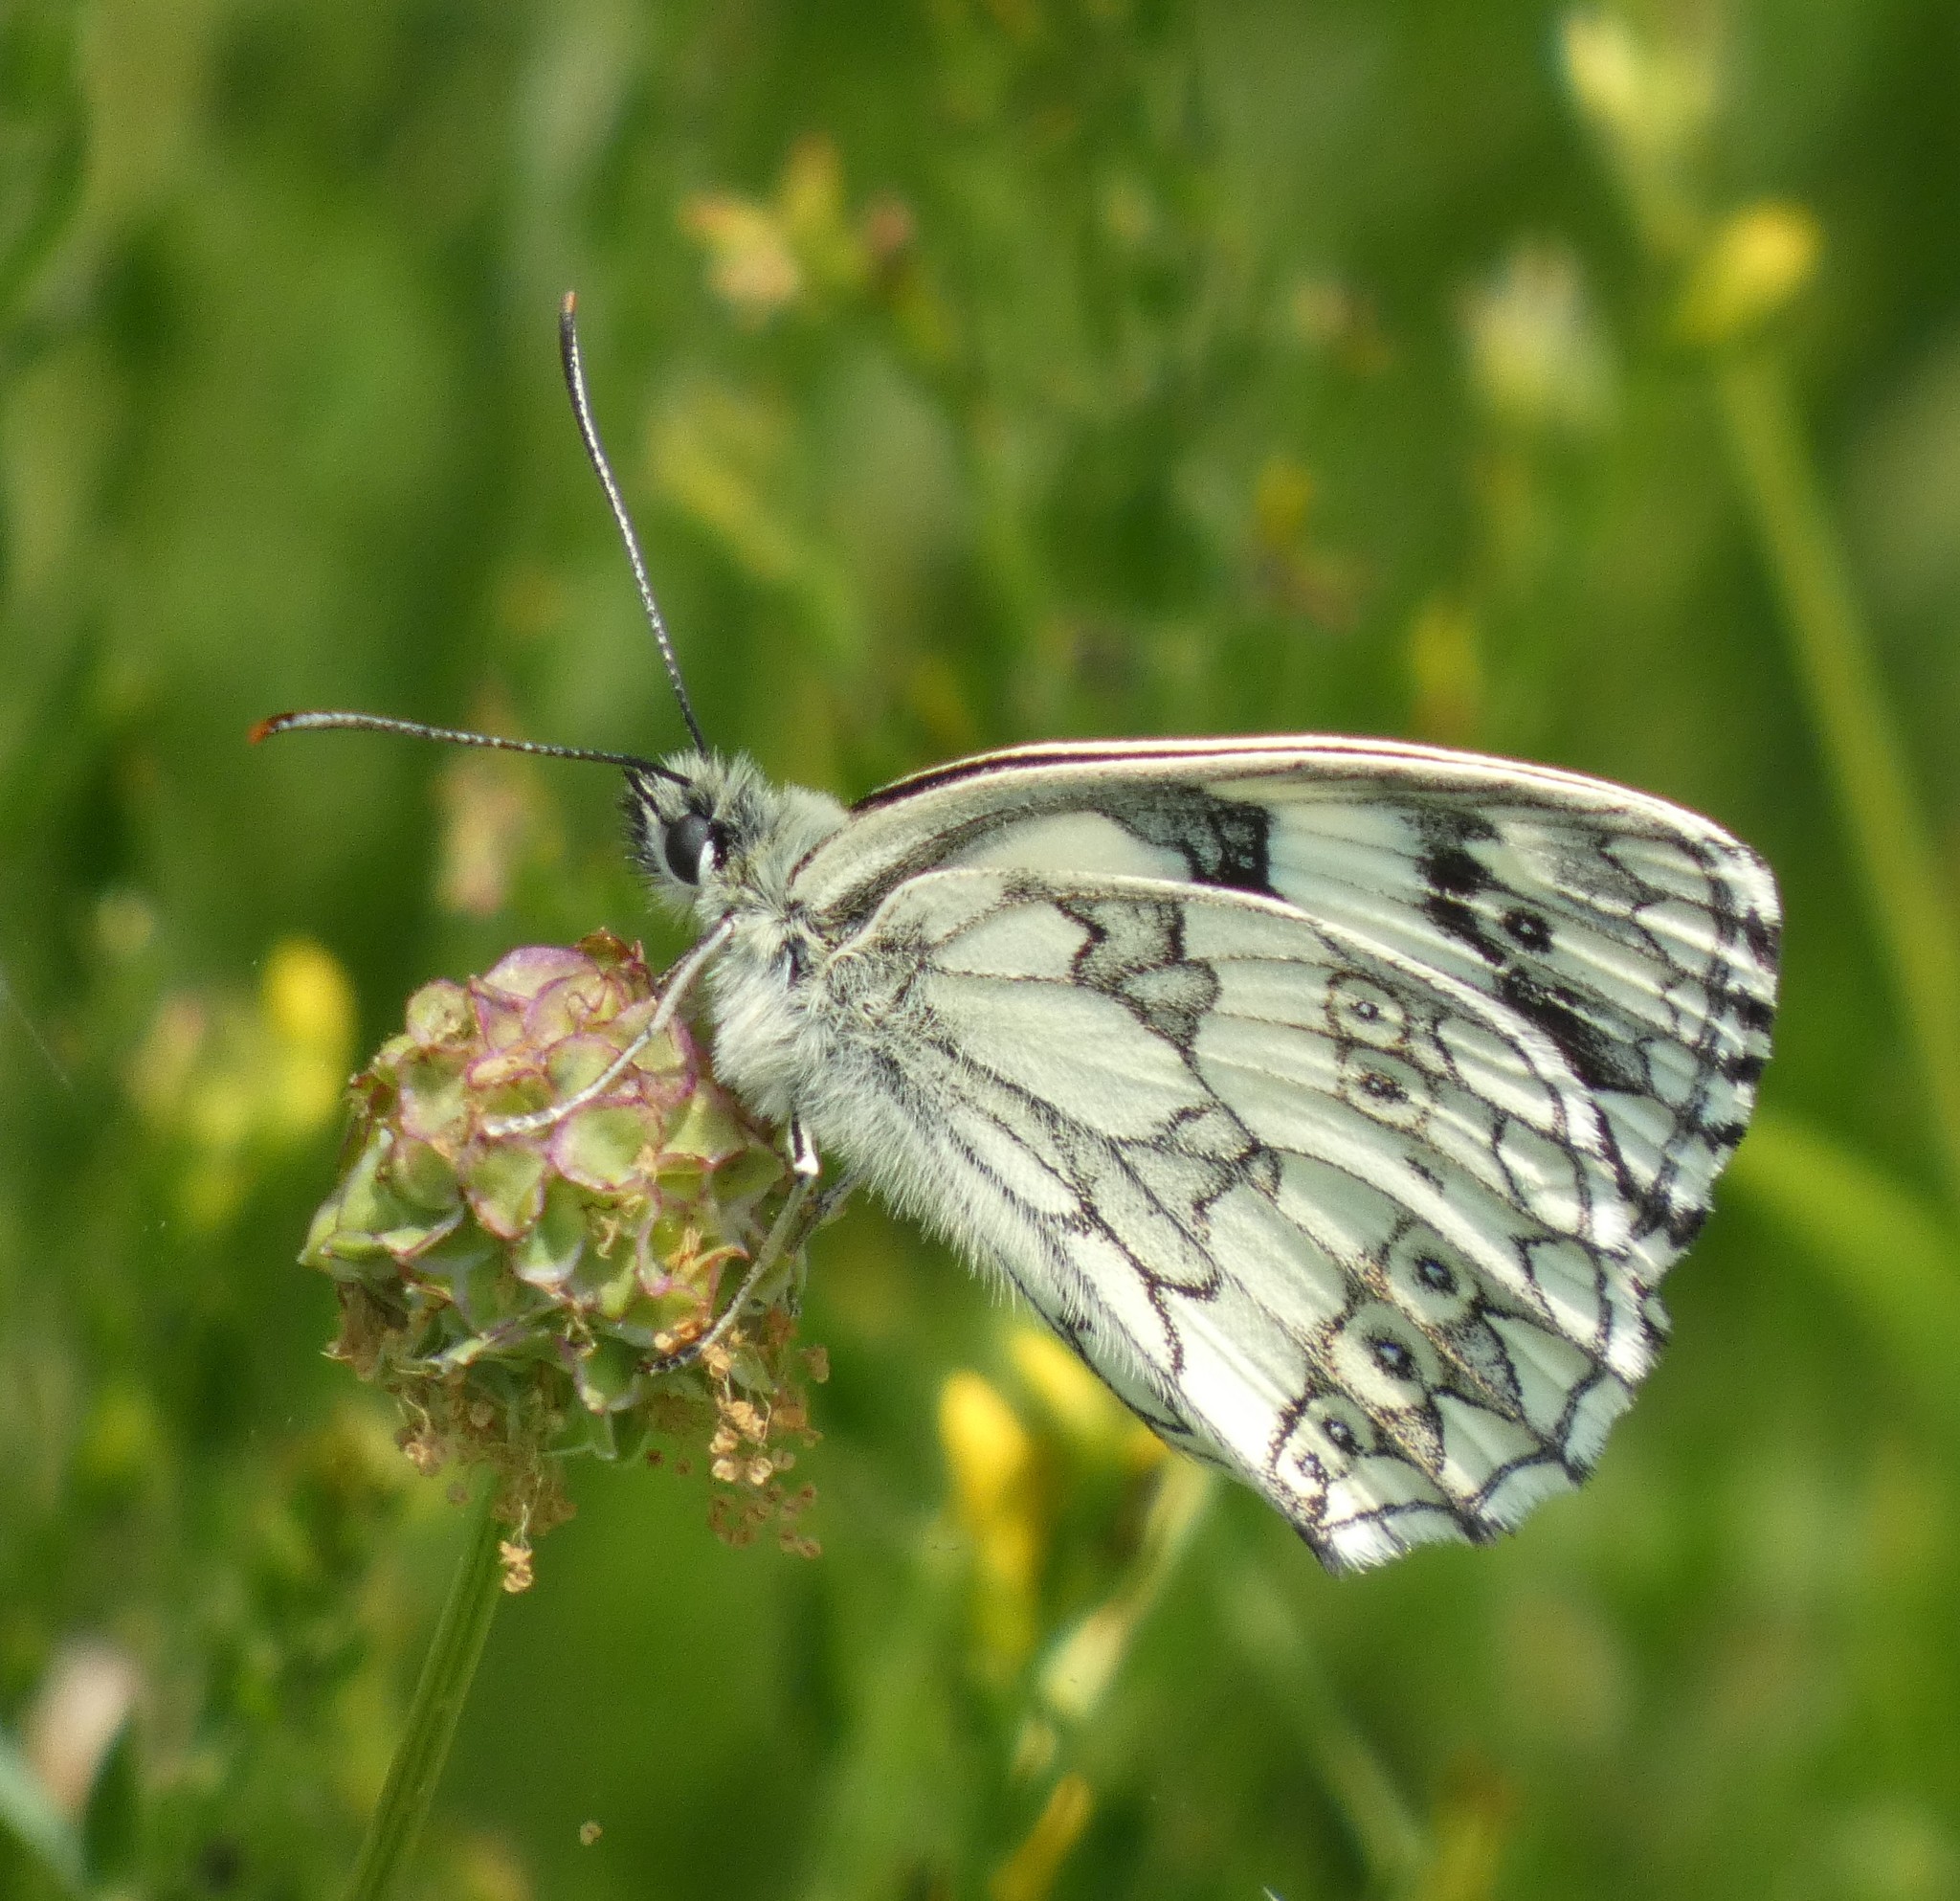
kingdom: Animalia
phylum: Arthropoda
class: Insecta
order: Lepidoptera
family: Nymphalidae
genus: Melanargia
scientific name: Melanargia galathea
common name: Marbled white
